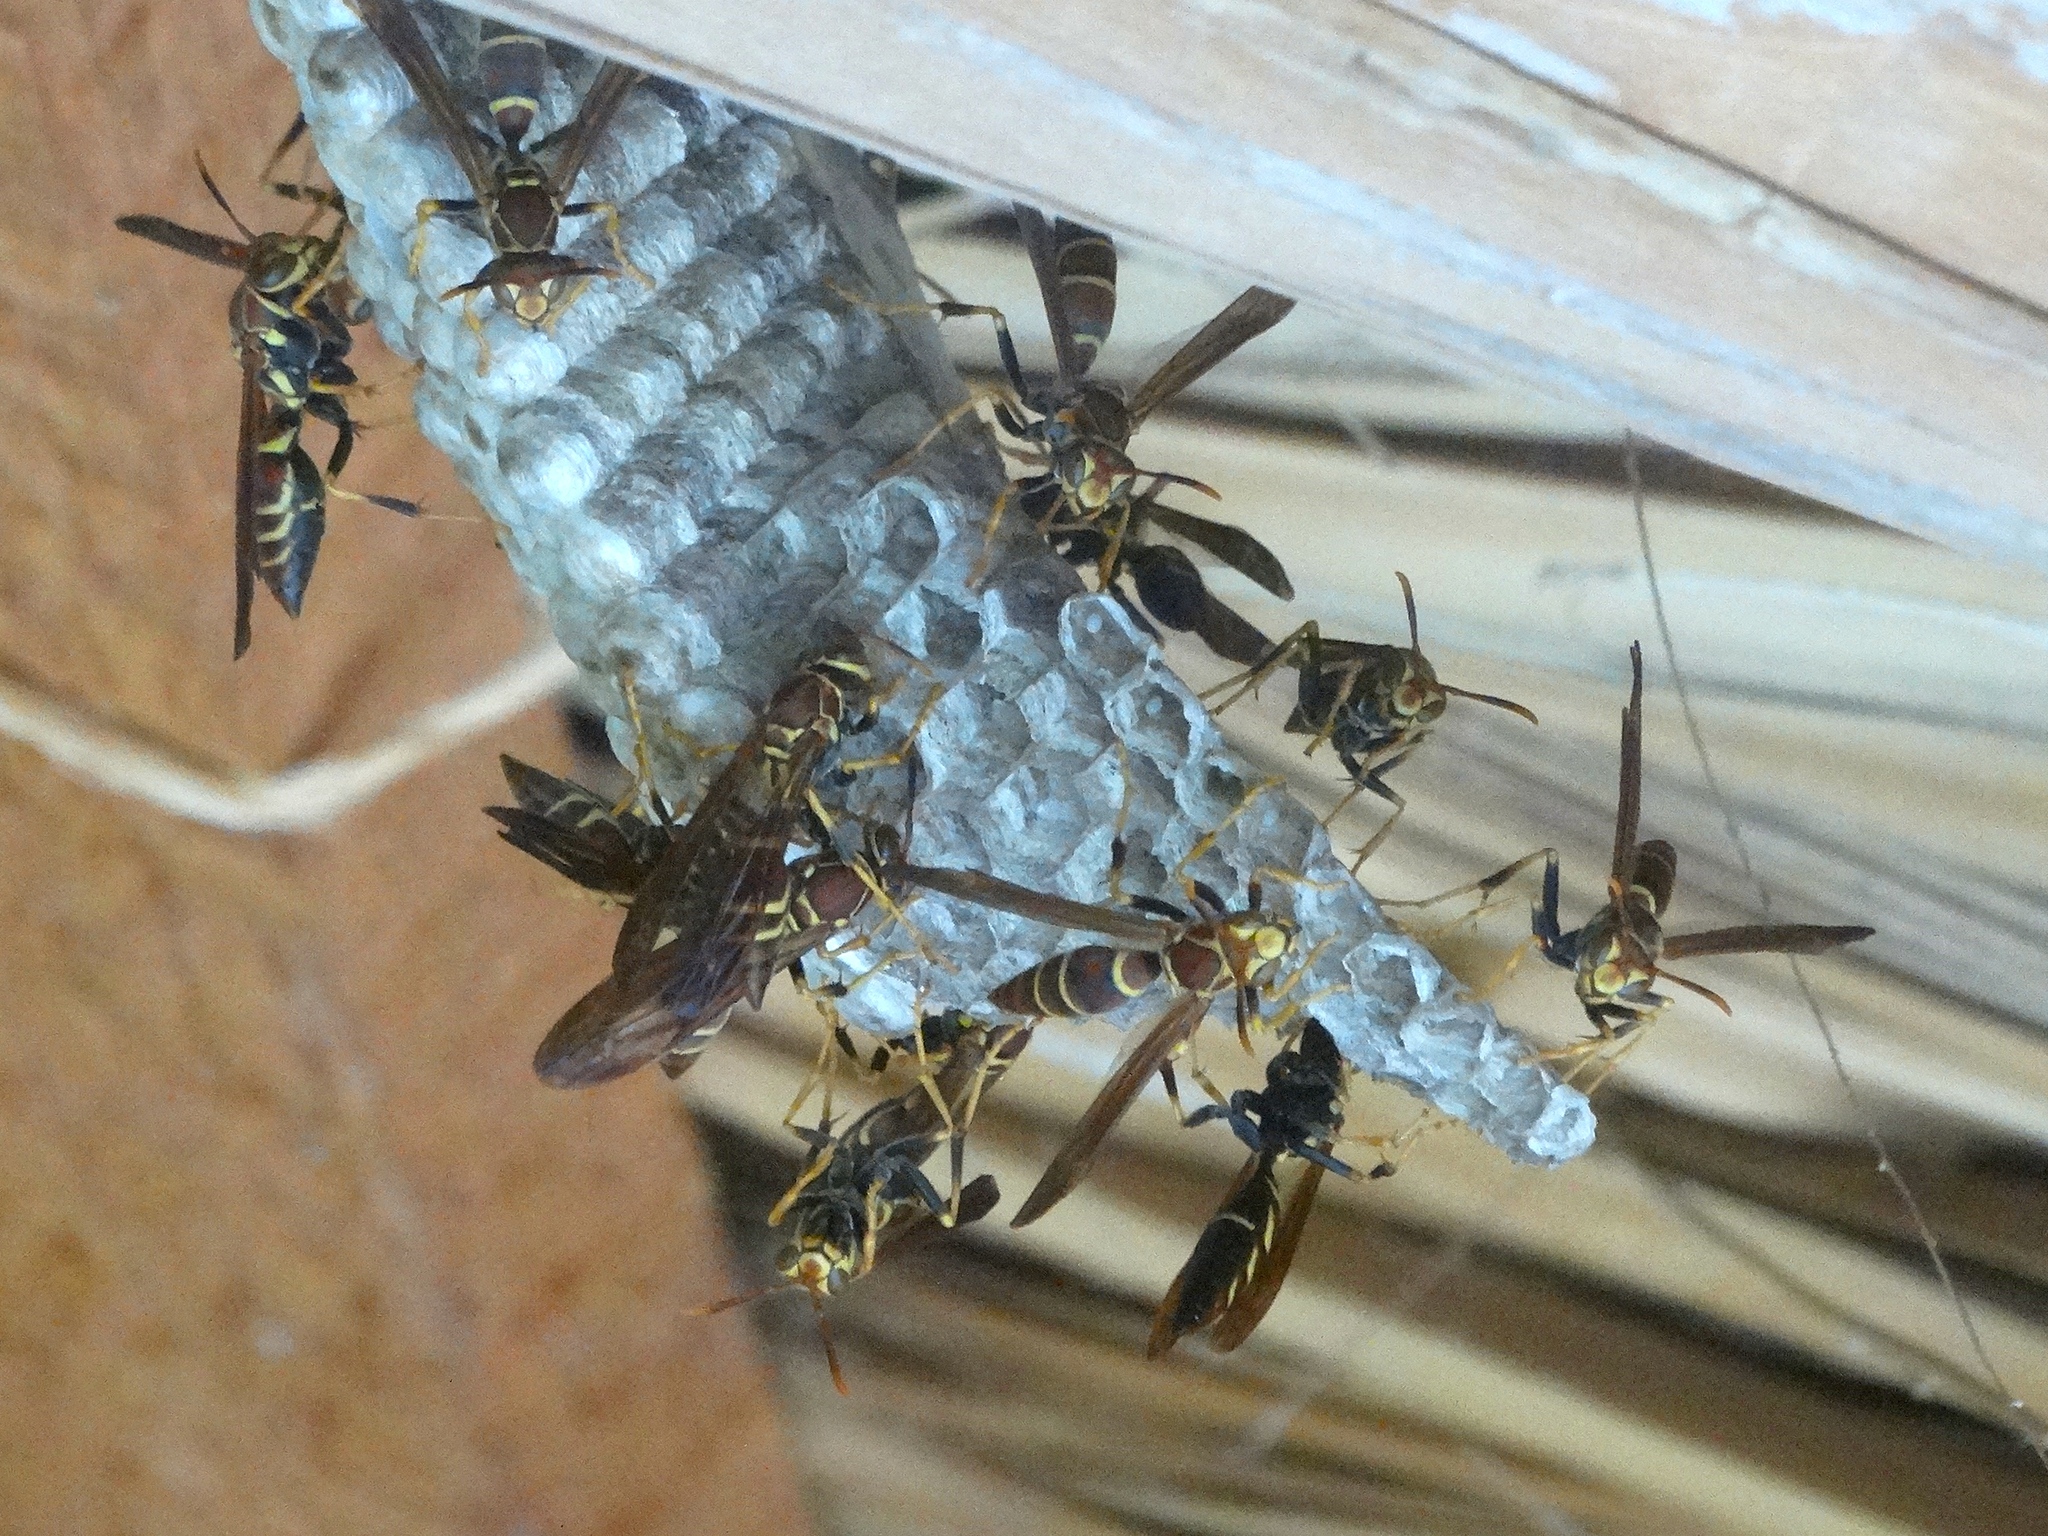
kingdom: Animalia
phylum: Arthropoda
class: Insecta
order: Hymenoptera
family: Eumenidae
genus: Polistes
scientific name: Polistes instabilis
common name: Unstable paper wasp
